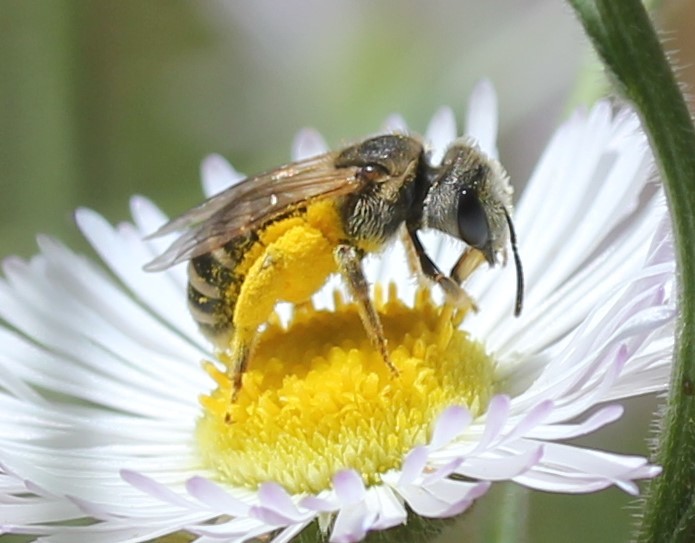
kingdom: Animalia
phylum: Arthropoda
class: Insecta
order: Hymenoptera
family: Halictidae
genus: Halictus
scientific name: Halictus ligatus
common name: Ligated furrow bee
